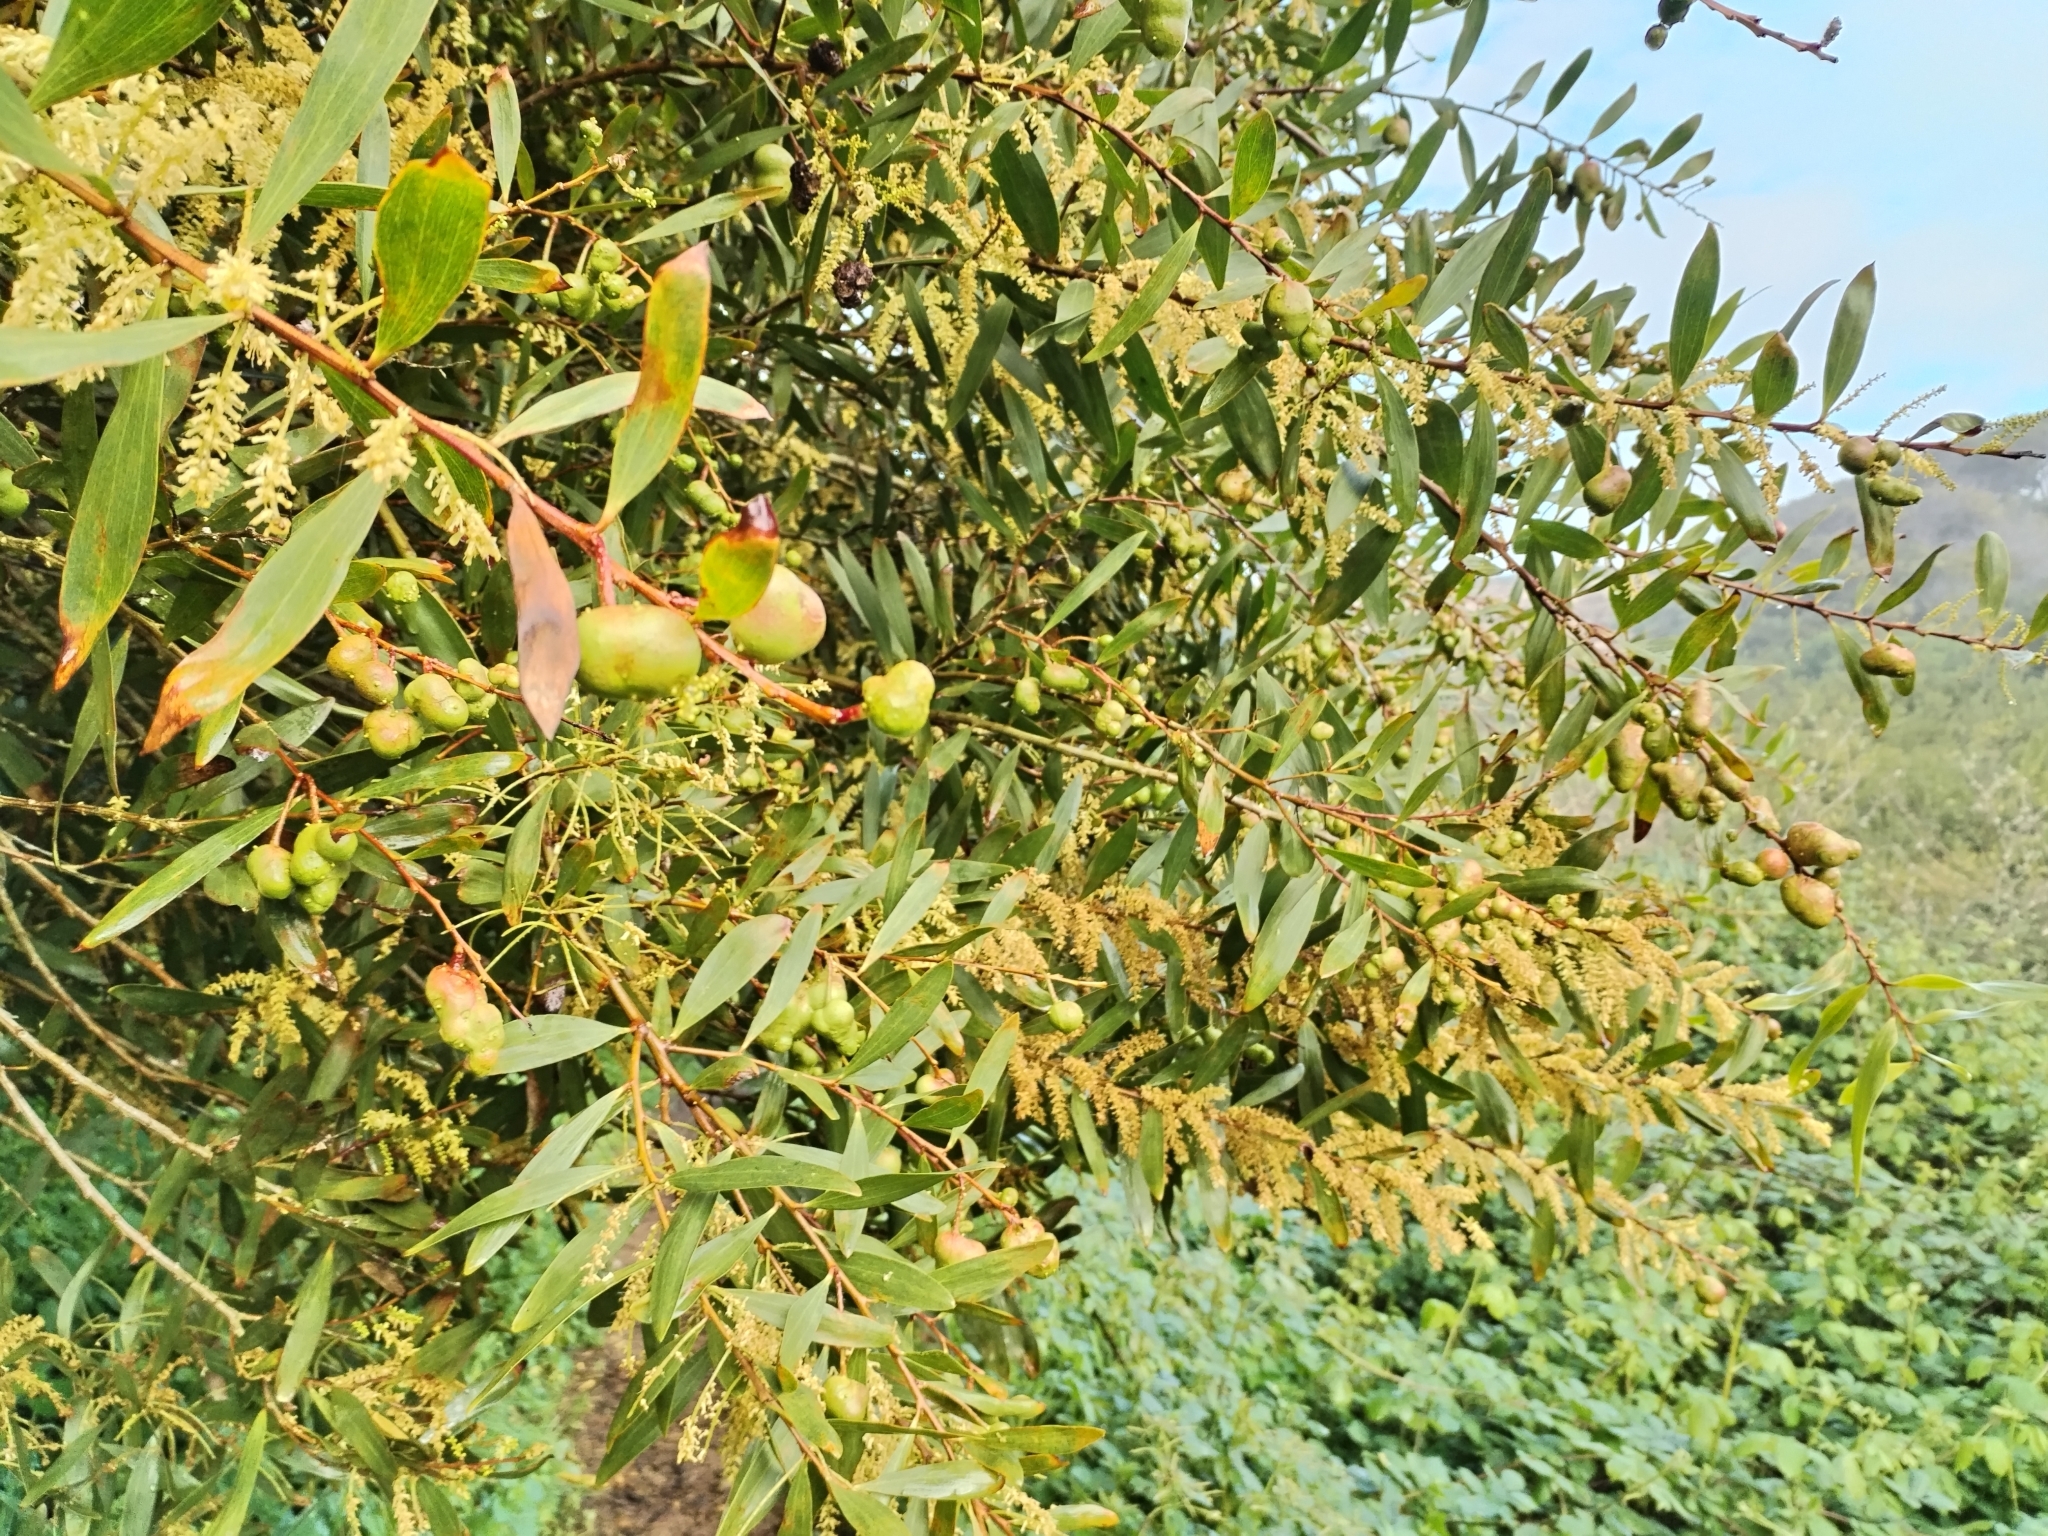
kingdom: Plantae
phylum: Tracheophyta
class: Magnoliopsida
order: Fabales
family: Fabaceae
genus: Acacia
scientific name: Acacia longifolia
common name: Sydney golden wattle
